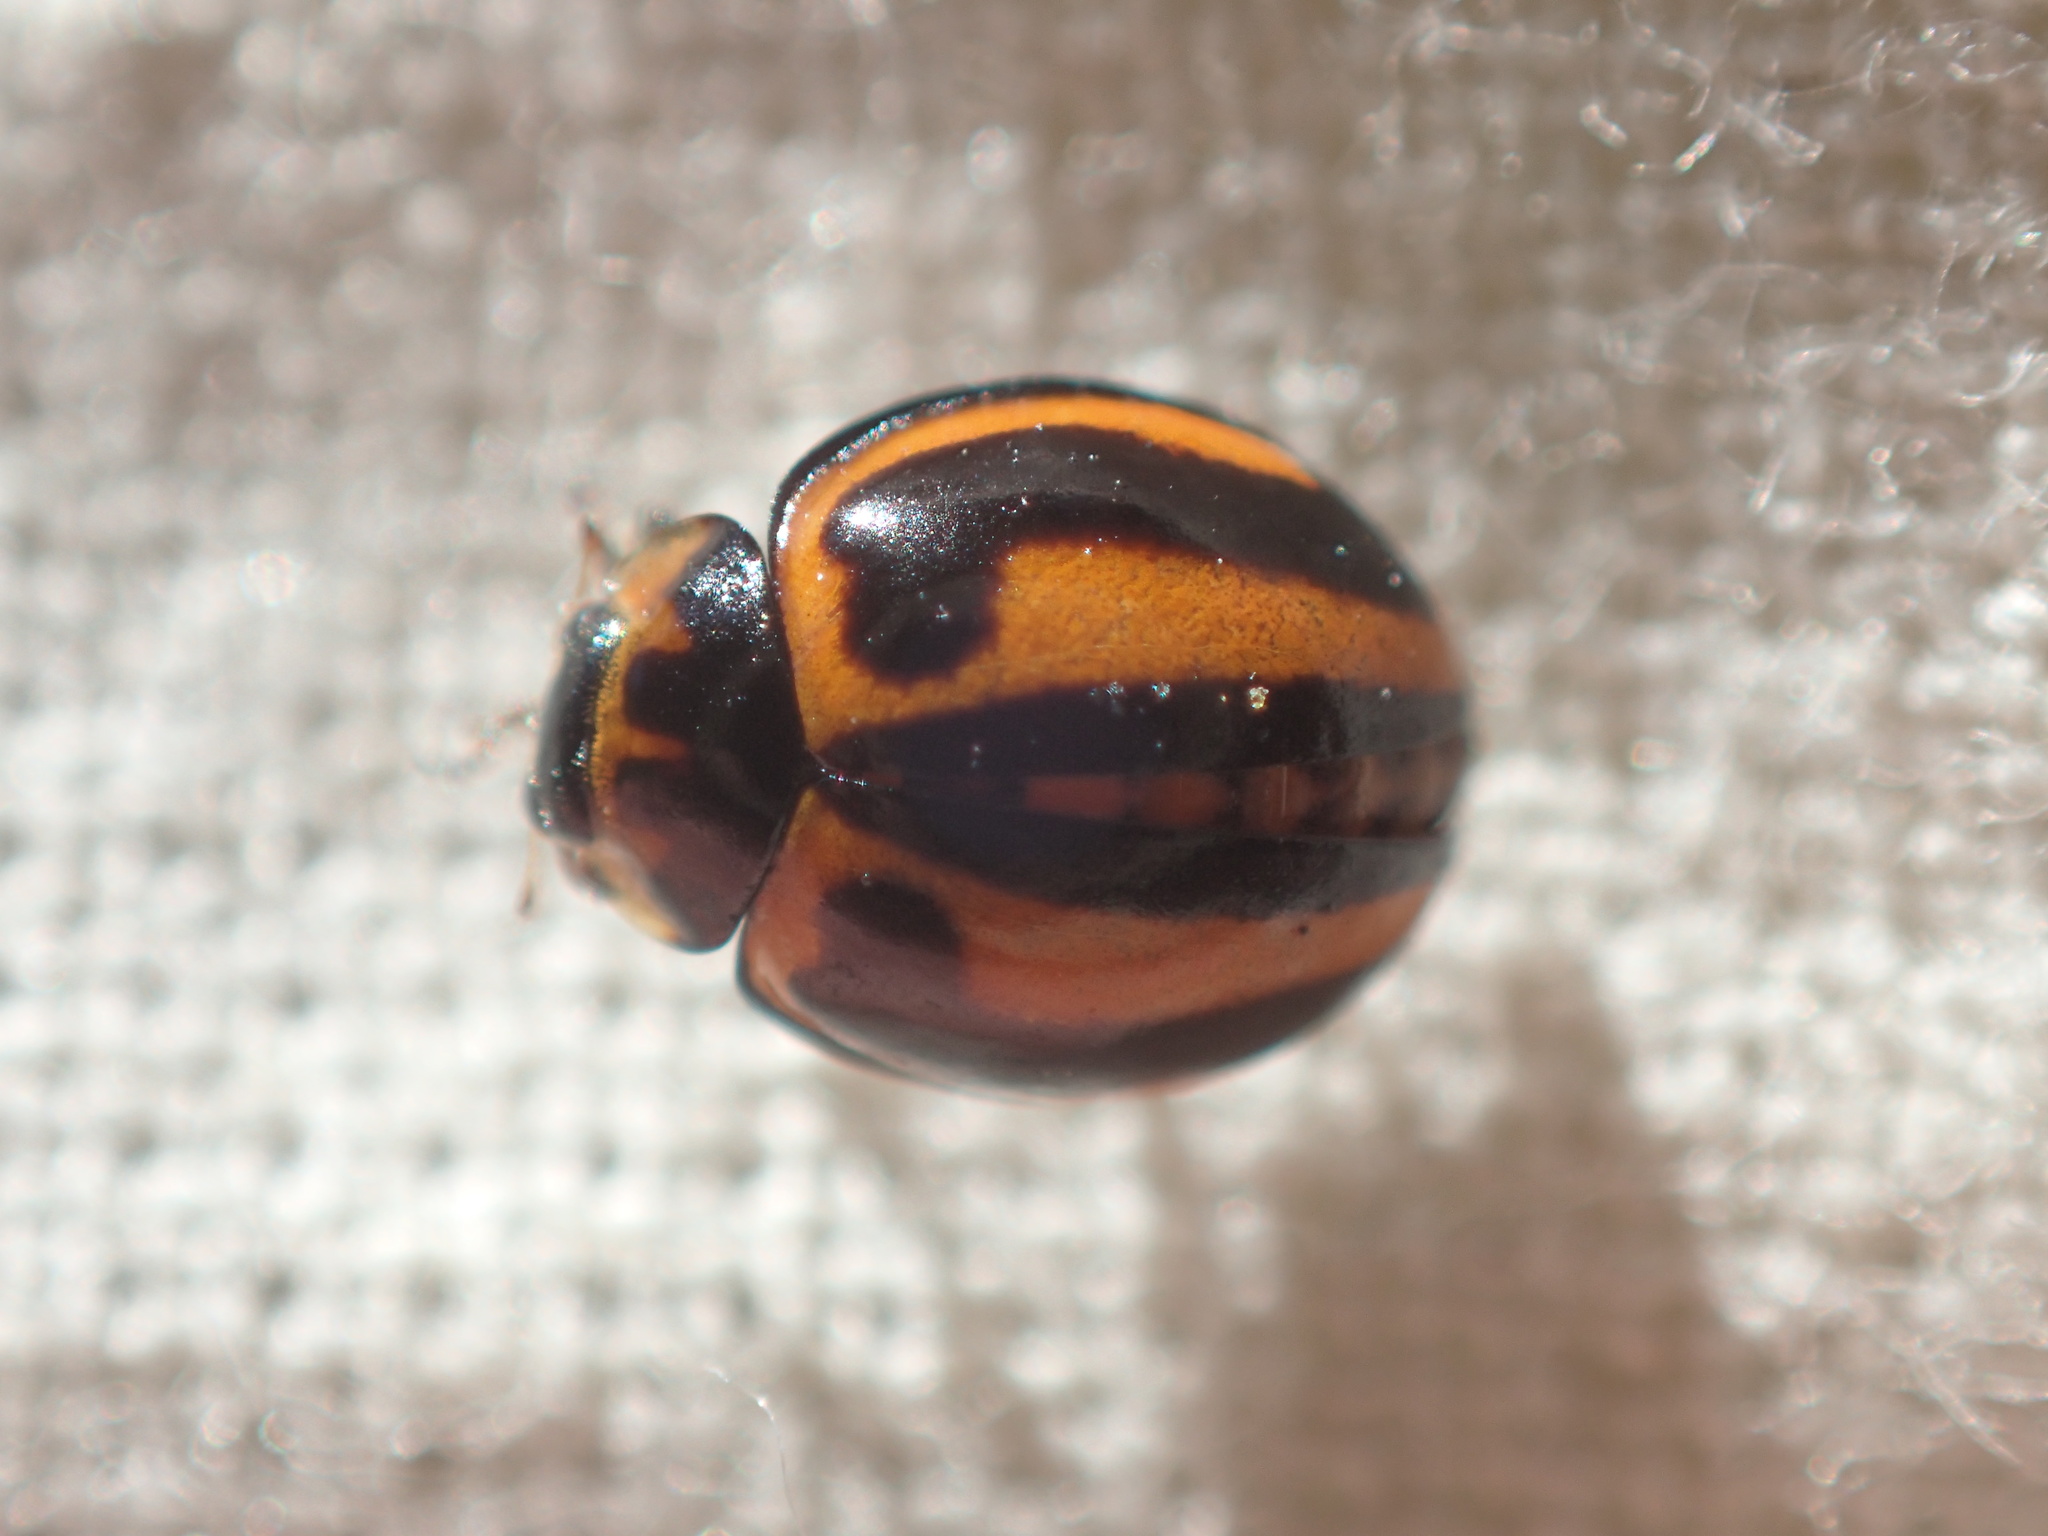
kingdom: Animalia
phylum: Arthropoda
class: Insecta
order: Coleoptera
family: Coccinellidae
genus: Micraspis
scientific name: Micraspis frenata
